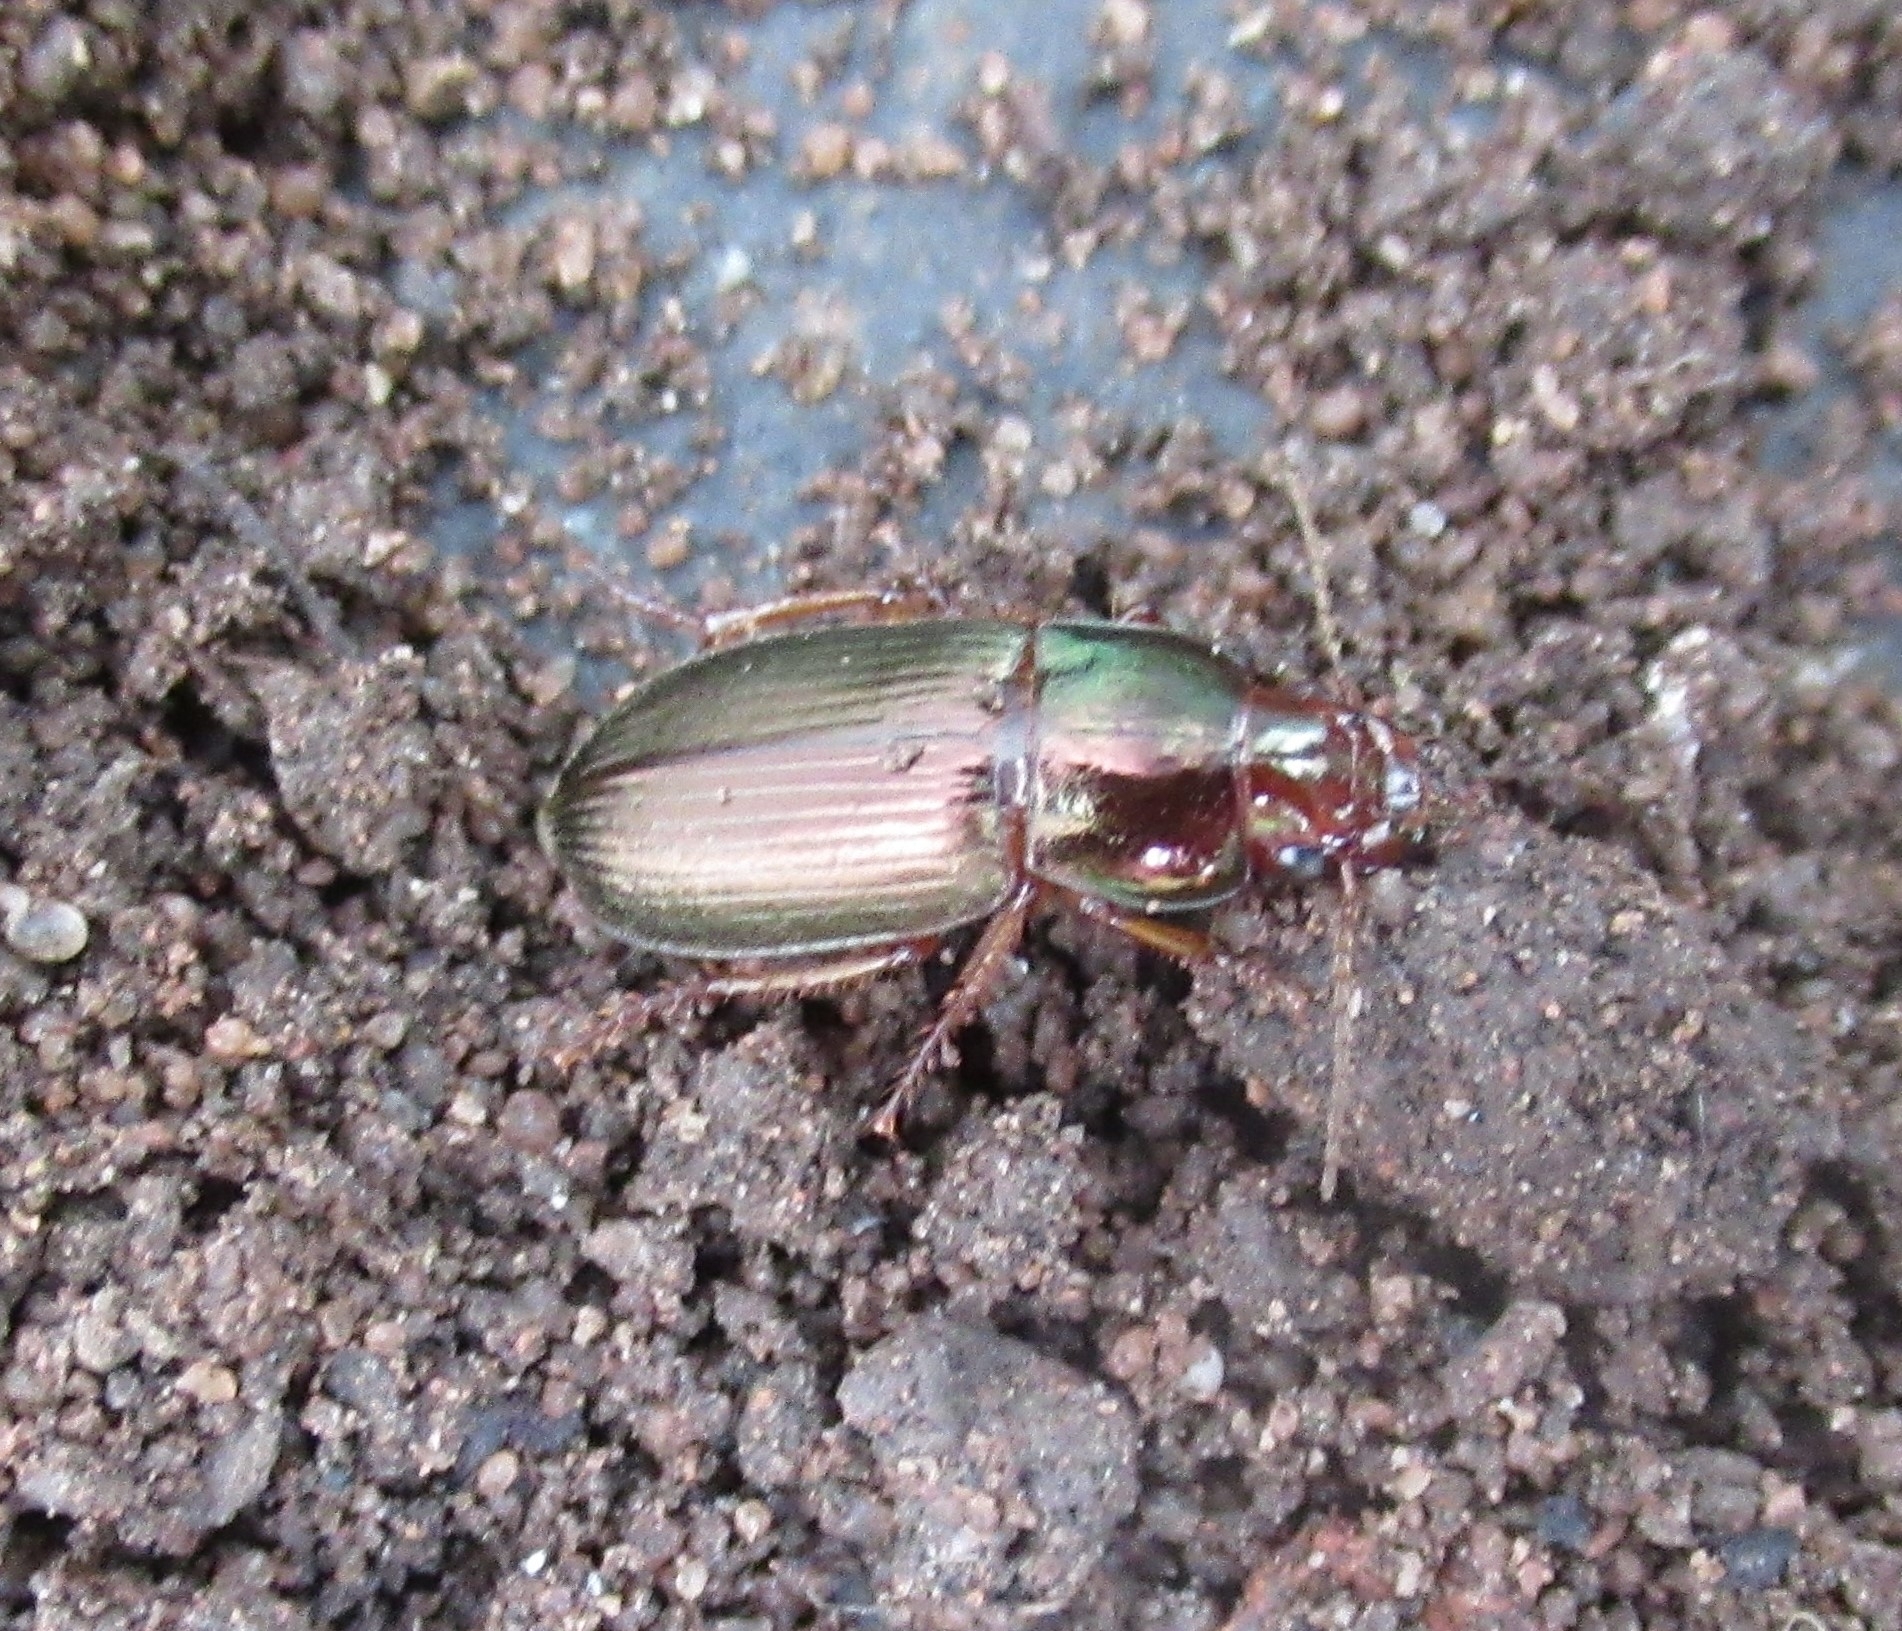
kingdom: Animalia
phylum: Arthropoda
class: Insecta
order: Coleoptera
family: Carabidae
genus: Harpalus
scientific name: Harpalus affinis
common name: Polychrome harp ground beetle
